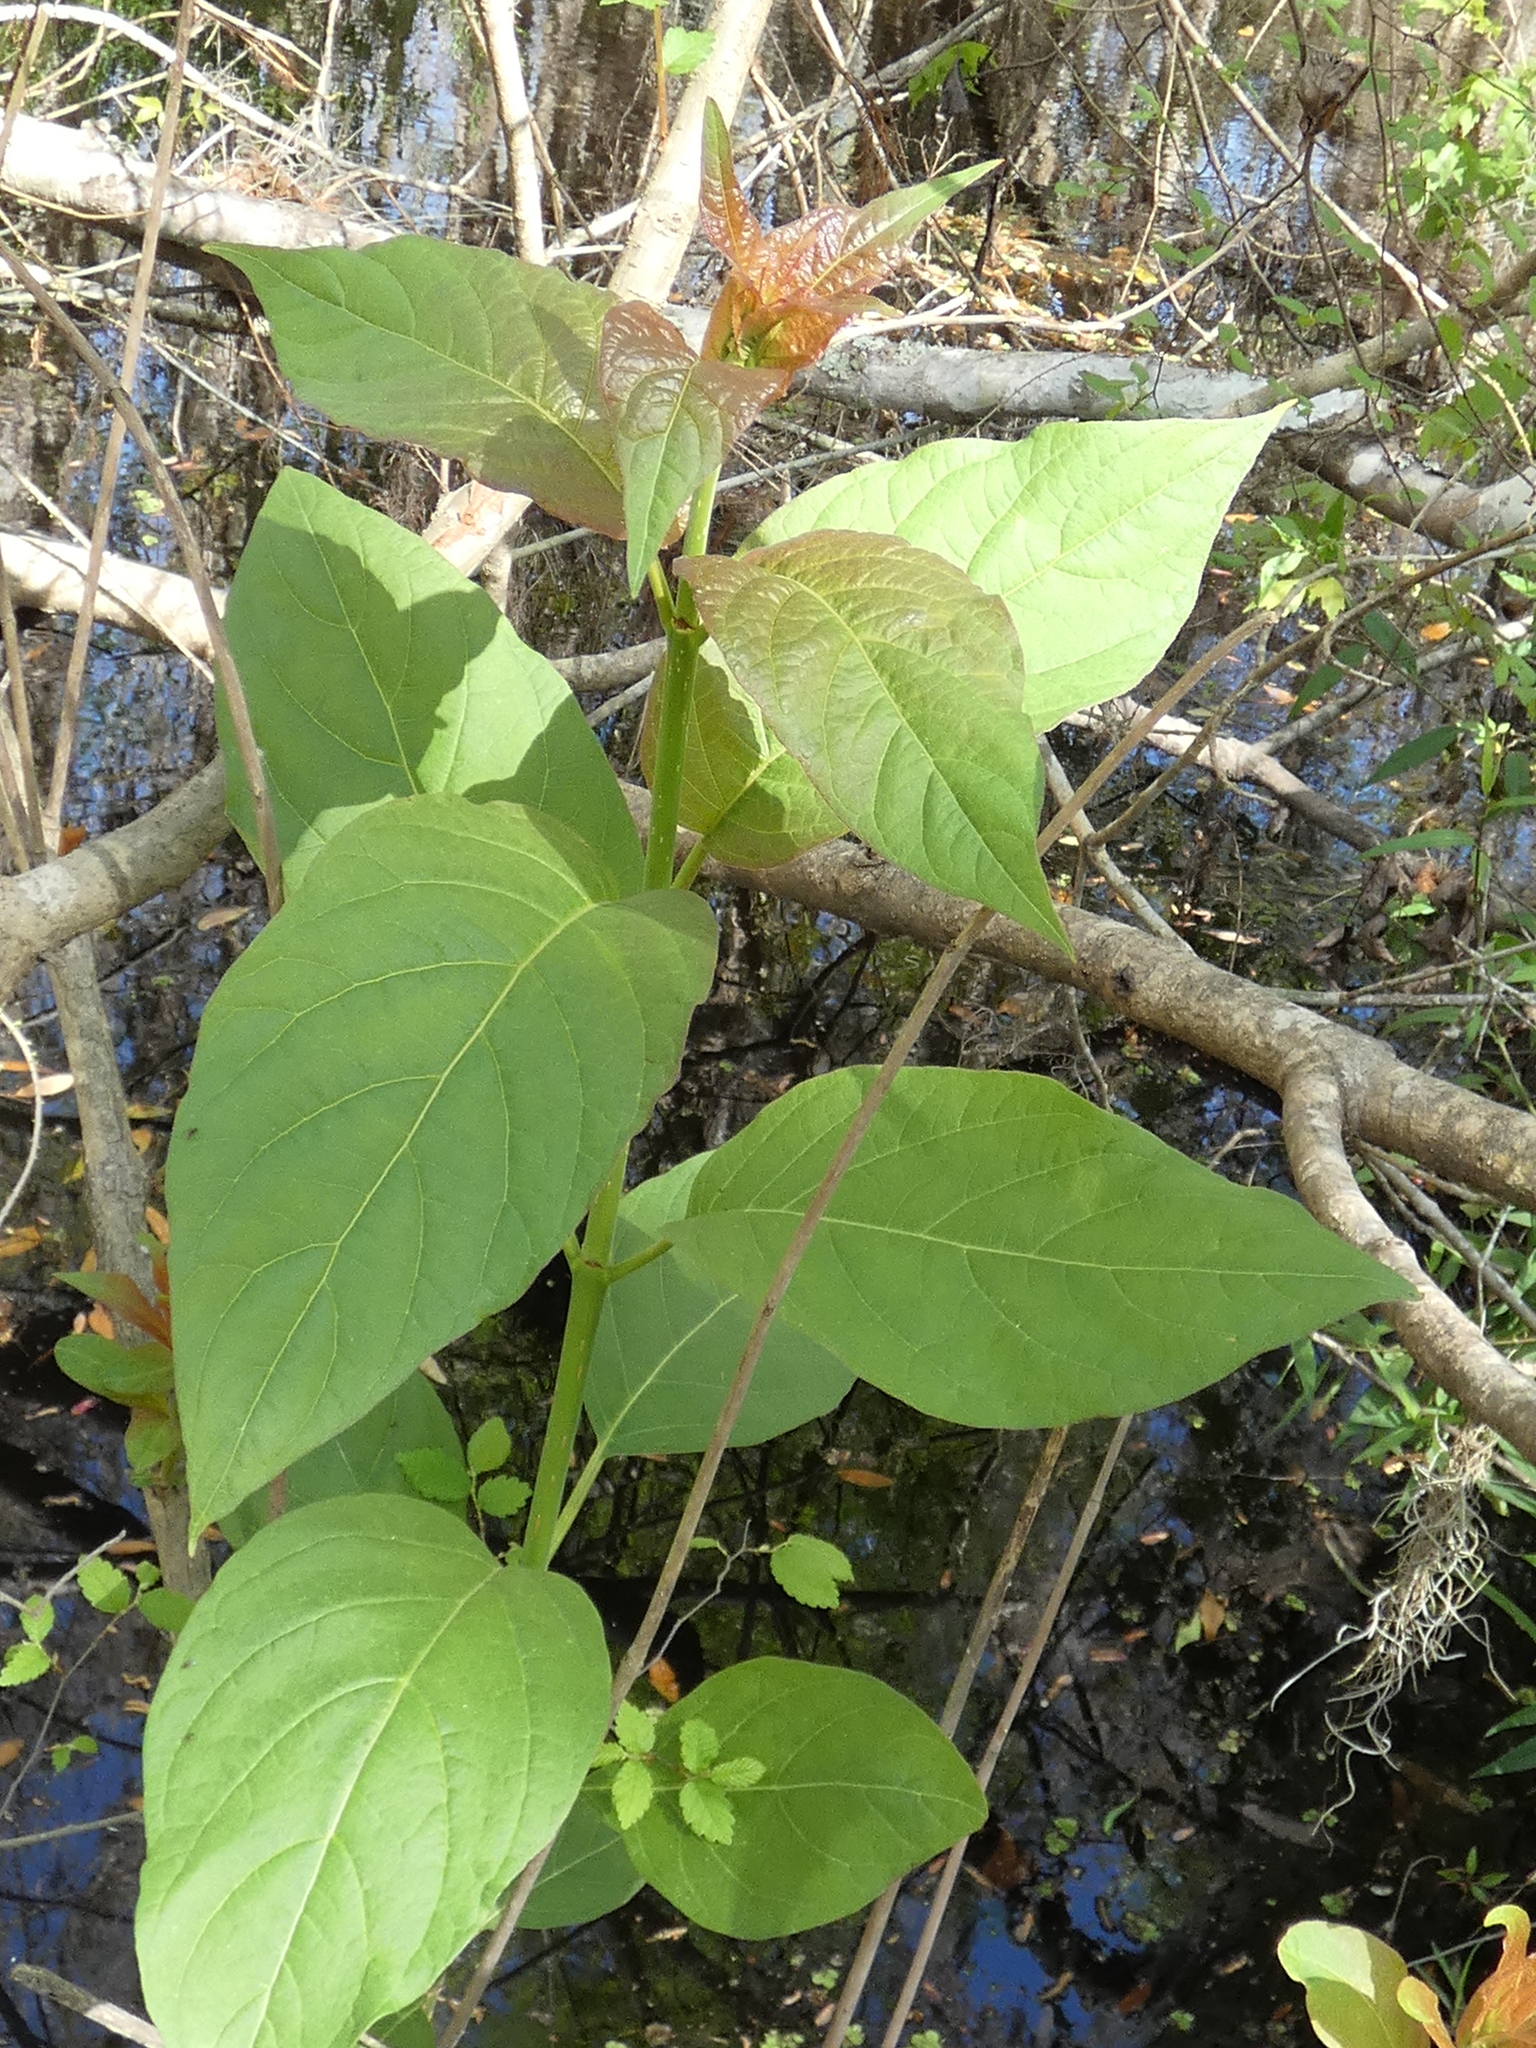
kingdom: Plantae
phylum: Tracheophyta
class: Magnoliopsida
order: Gentianales
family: Rubiaceae
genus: Cephalanthus
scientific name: Cephalanthus occidentalis
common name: Button-willow
